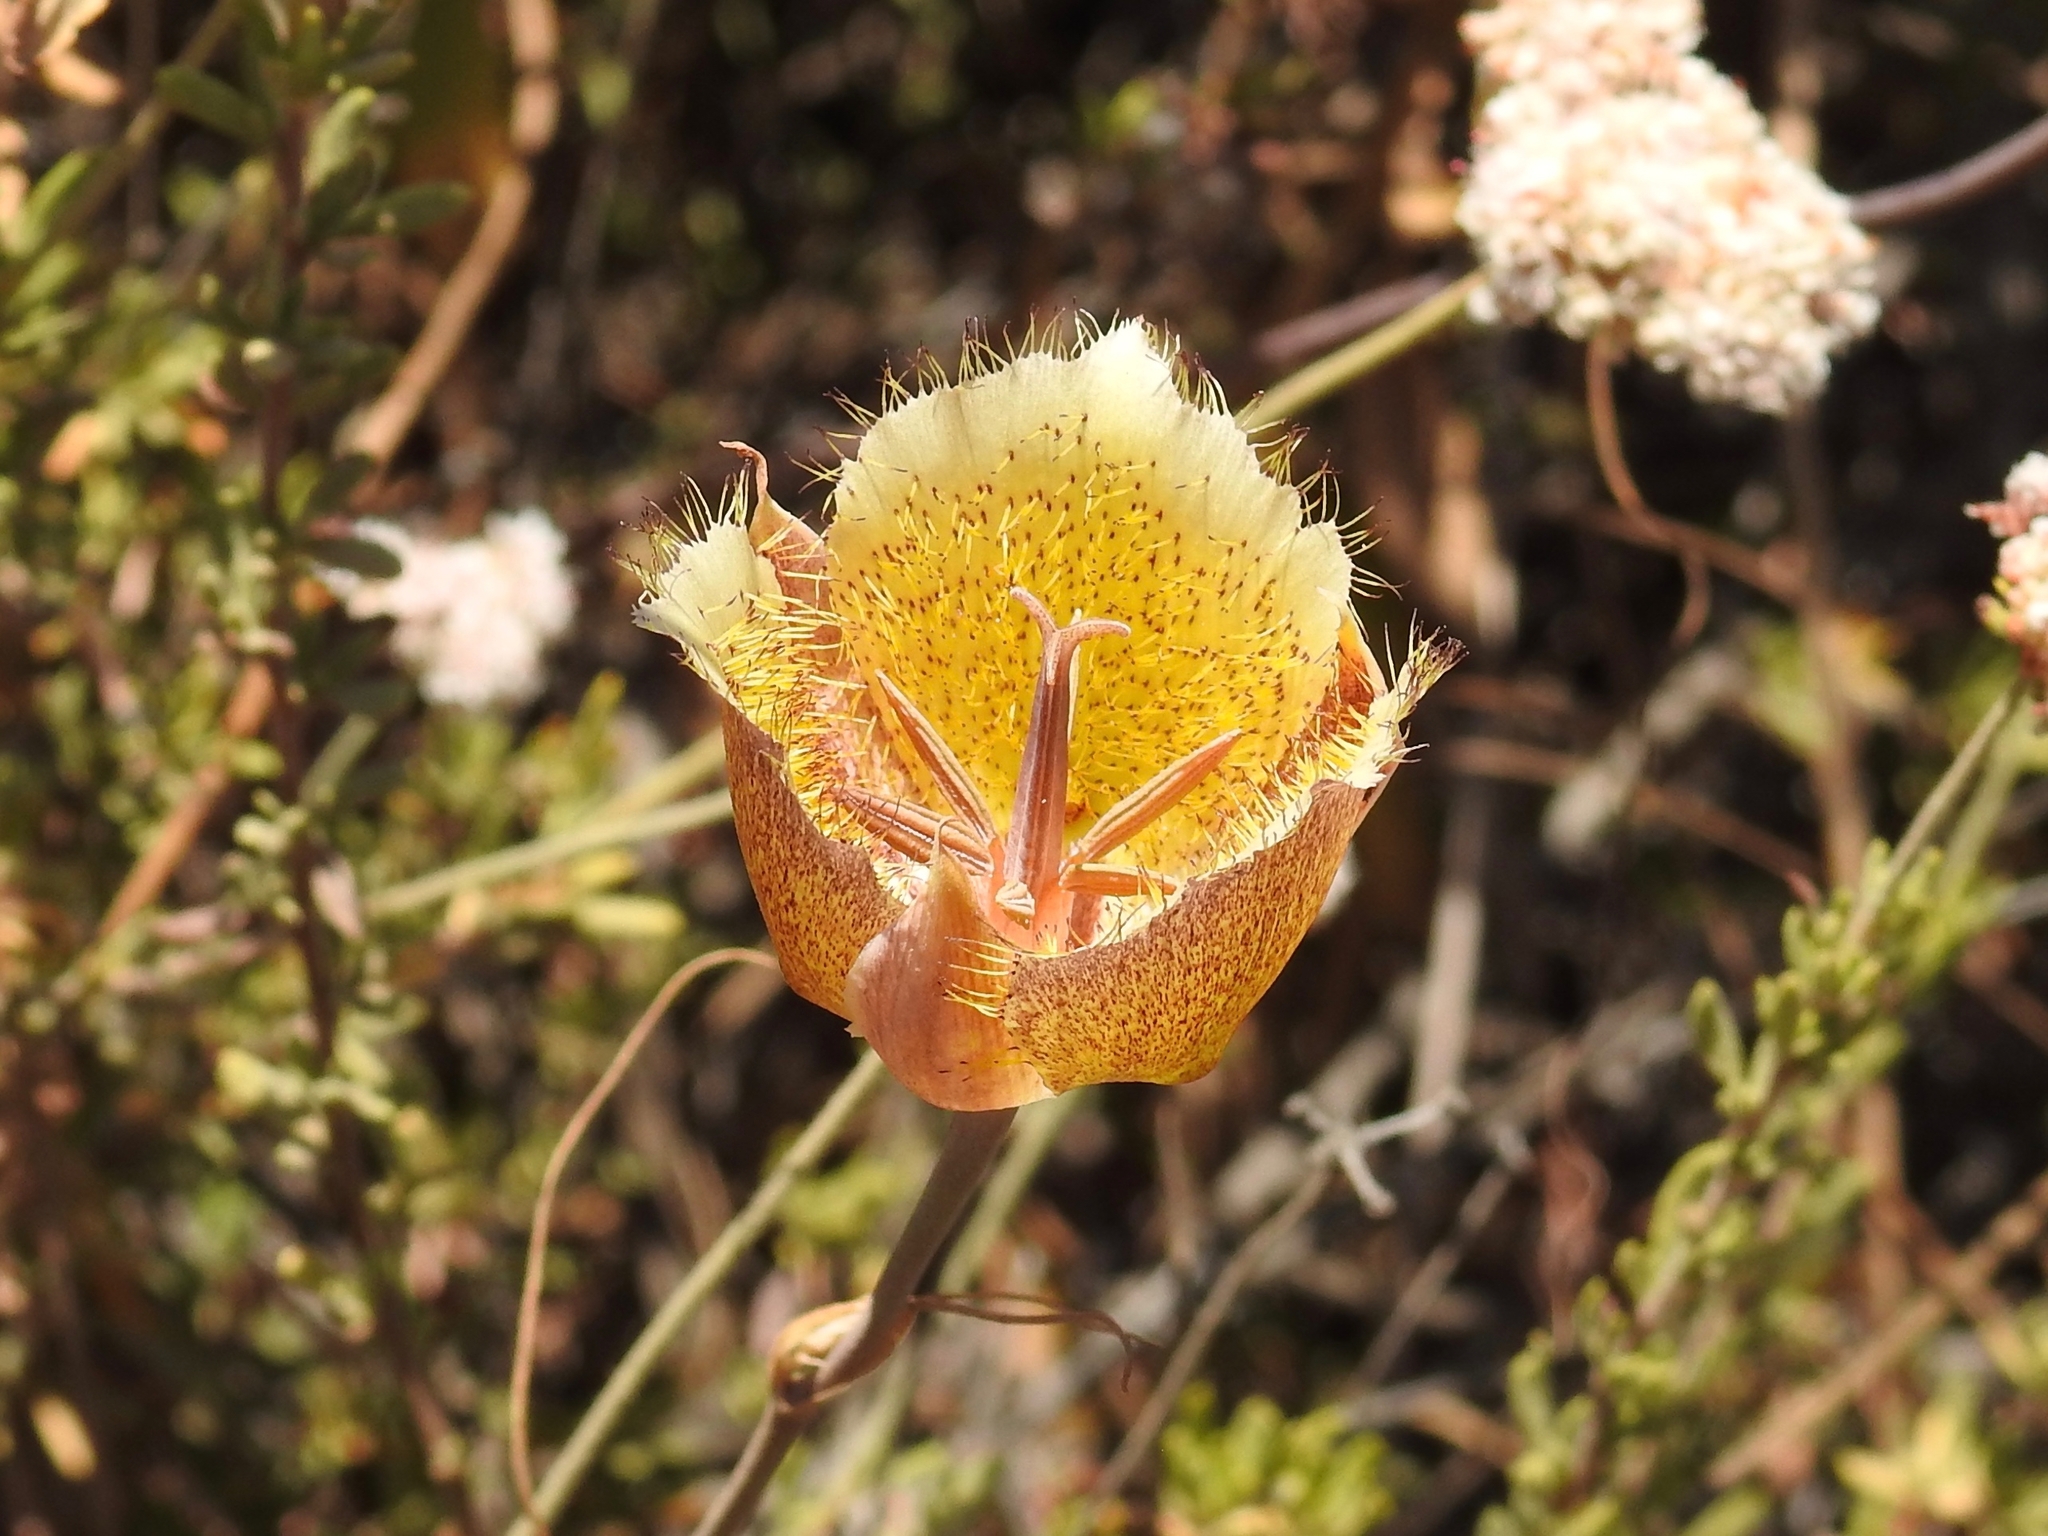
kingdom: Plantae
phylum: Tracheophyta
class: Liliopsida
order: Liliales
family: Liliaceae
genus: Calochortus
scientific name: Calochortus weedii
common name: Weed's mariposa-lily
